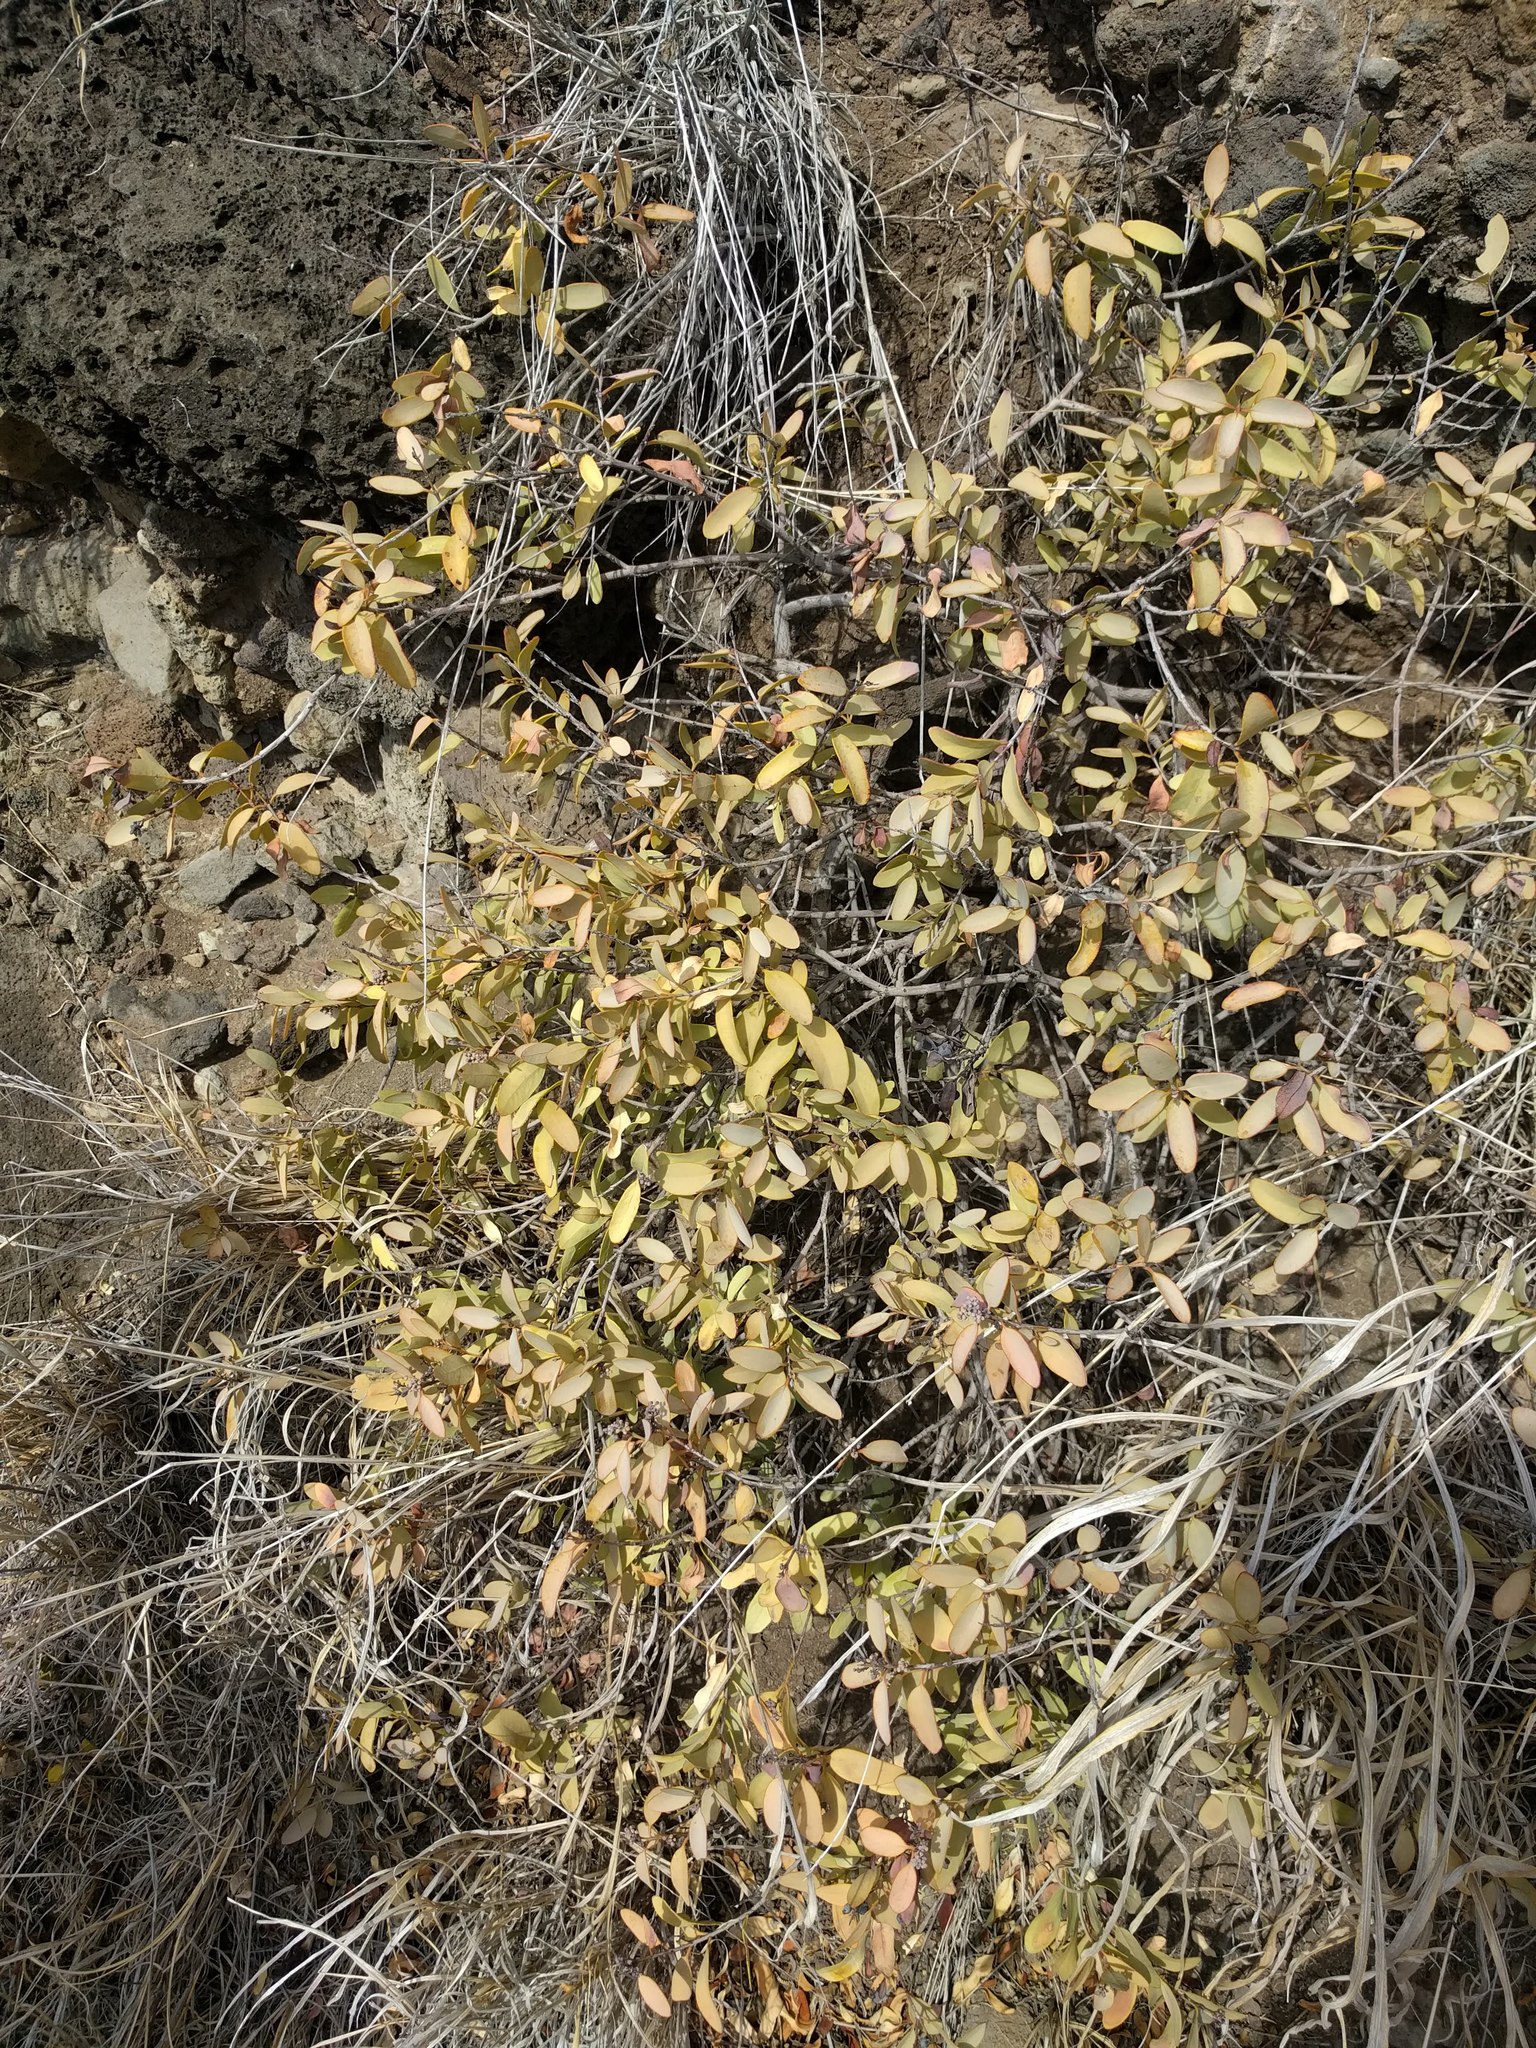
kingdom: Plantae
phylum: Tracheophyta
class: Magnoliopsida
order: Santalales
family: Santalaceae
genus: Santalum
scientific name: Santalum ellipticum
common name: Coast sandalwood
